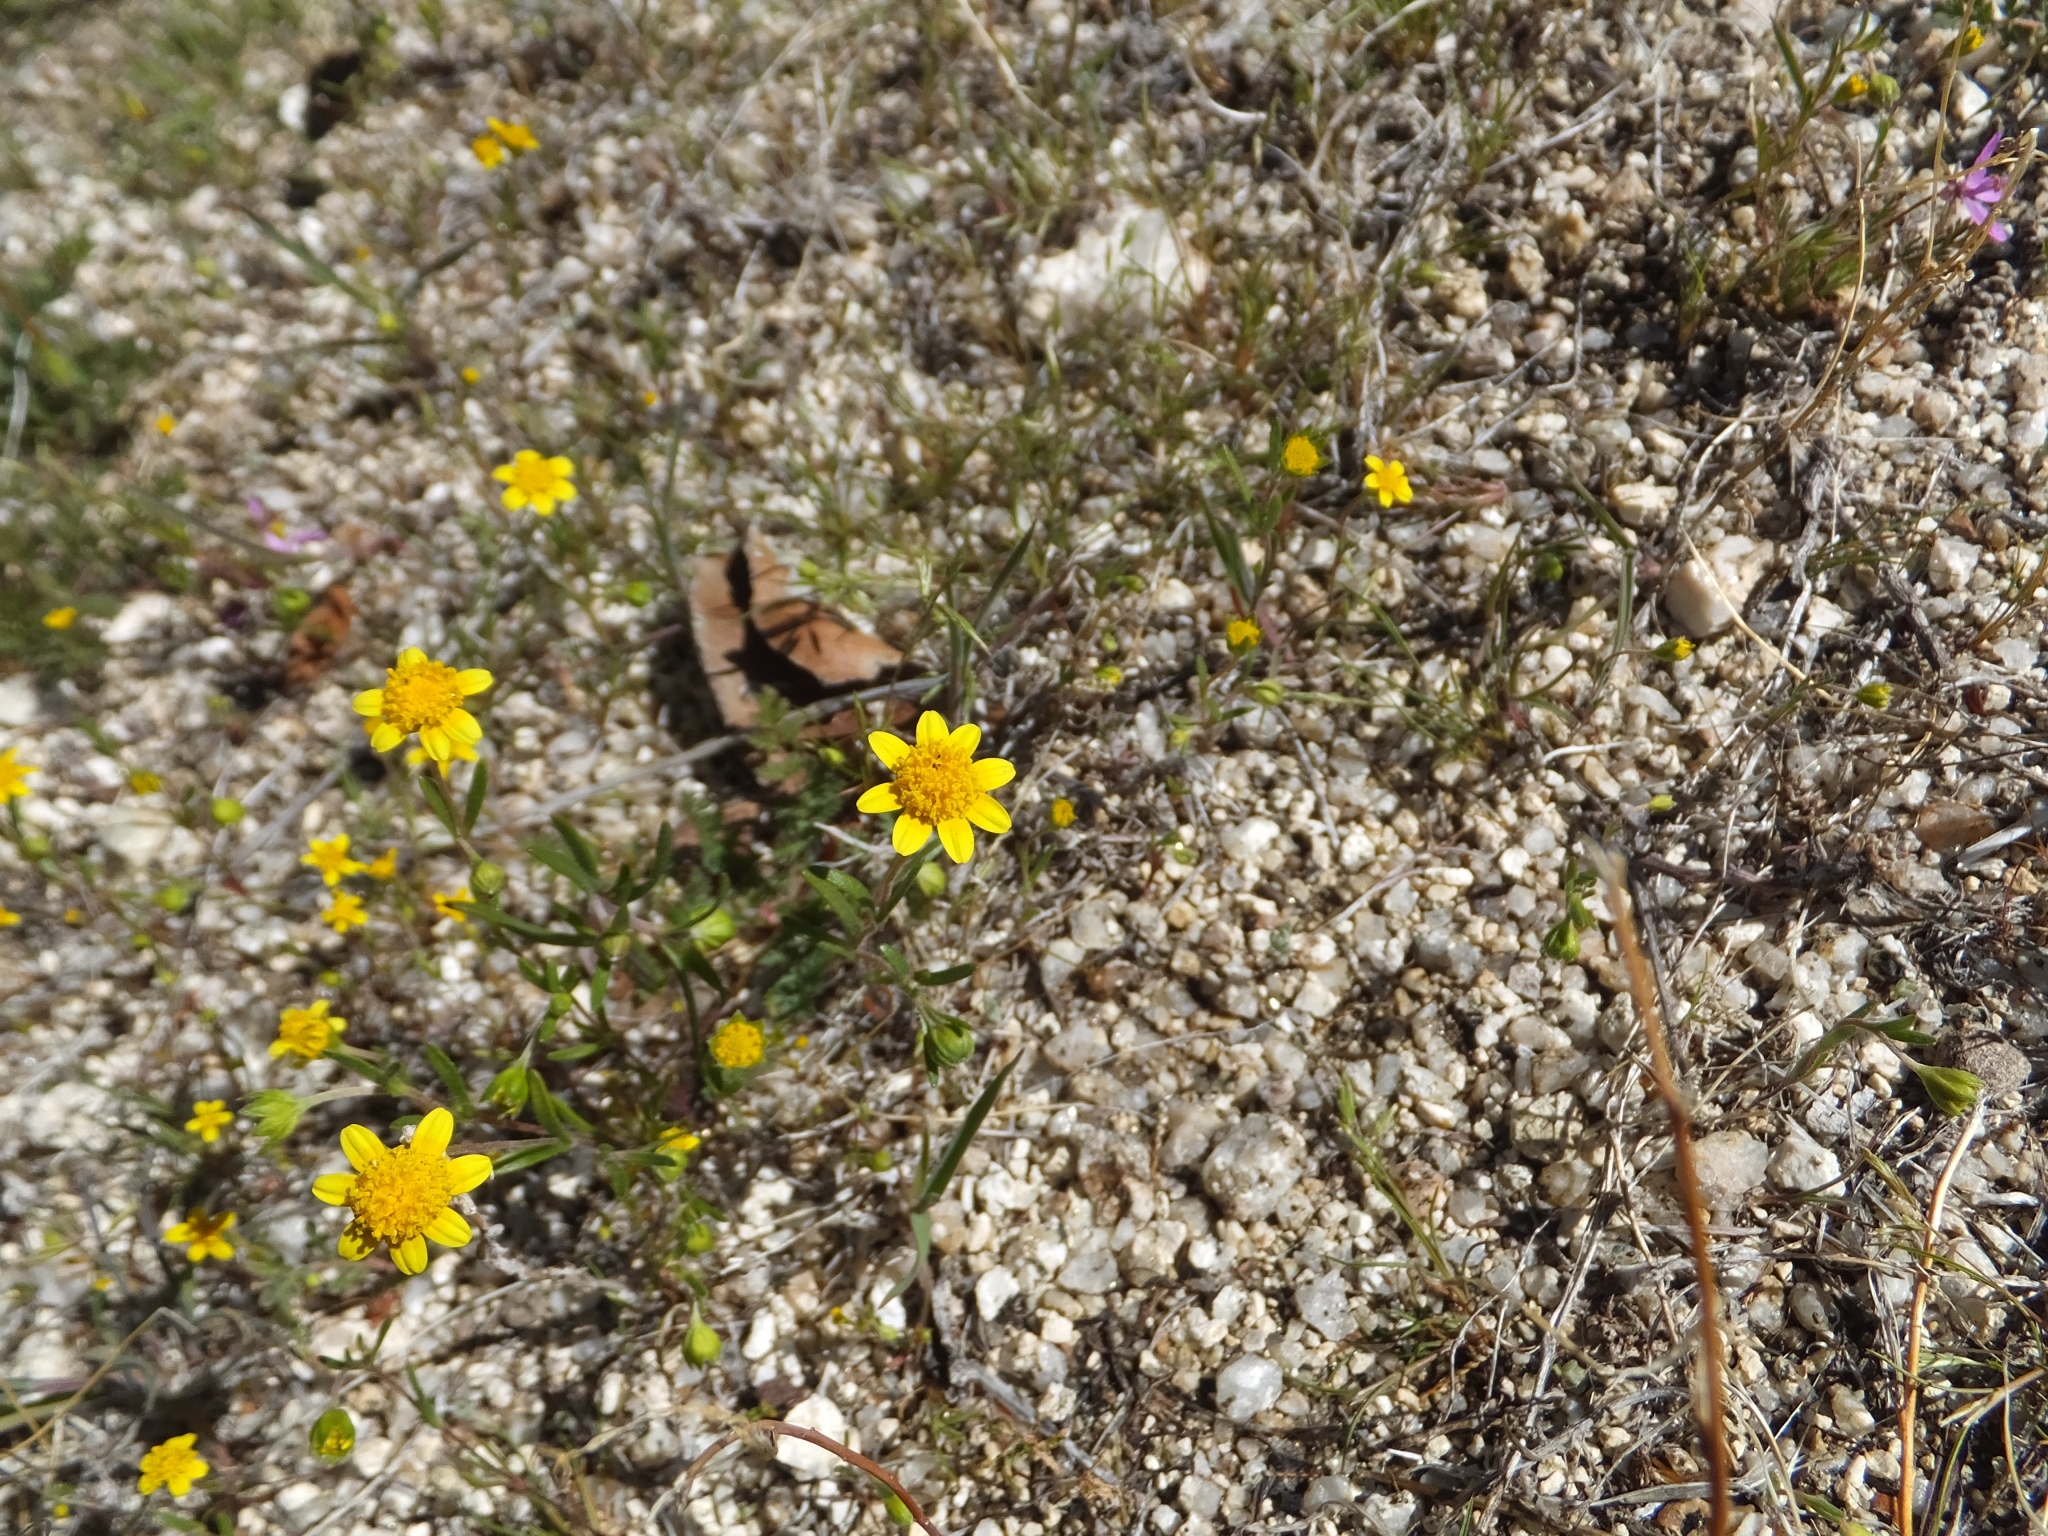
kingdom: Plantae
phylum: Tracheophyta
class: Magnoliopsida
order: Asterales
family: Asteraceae
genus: Lasthenia
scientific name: Lasthenia gracilis
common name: Common goldfields
